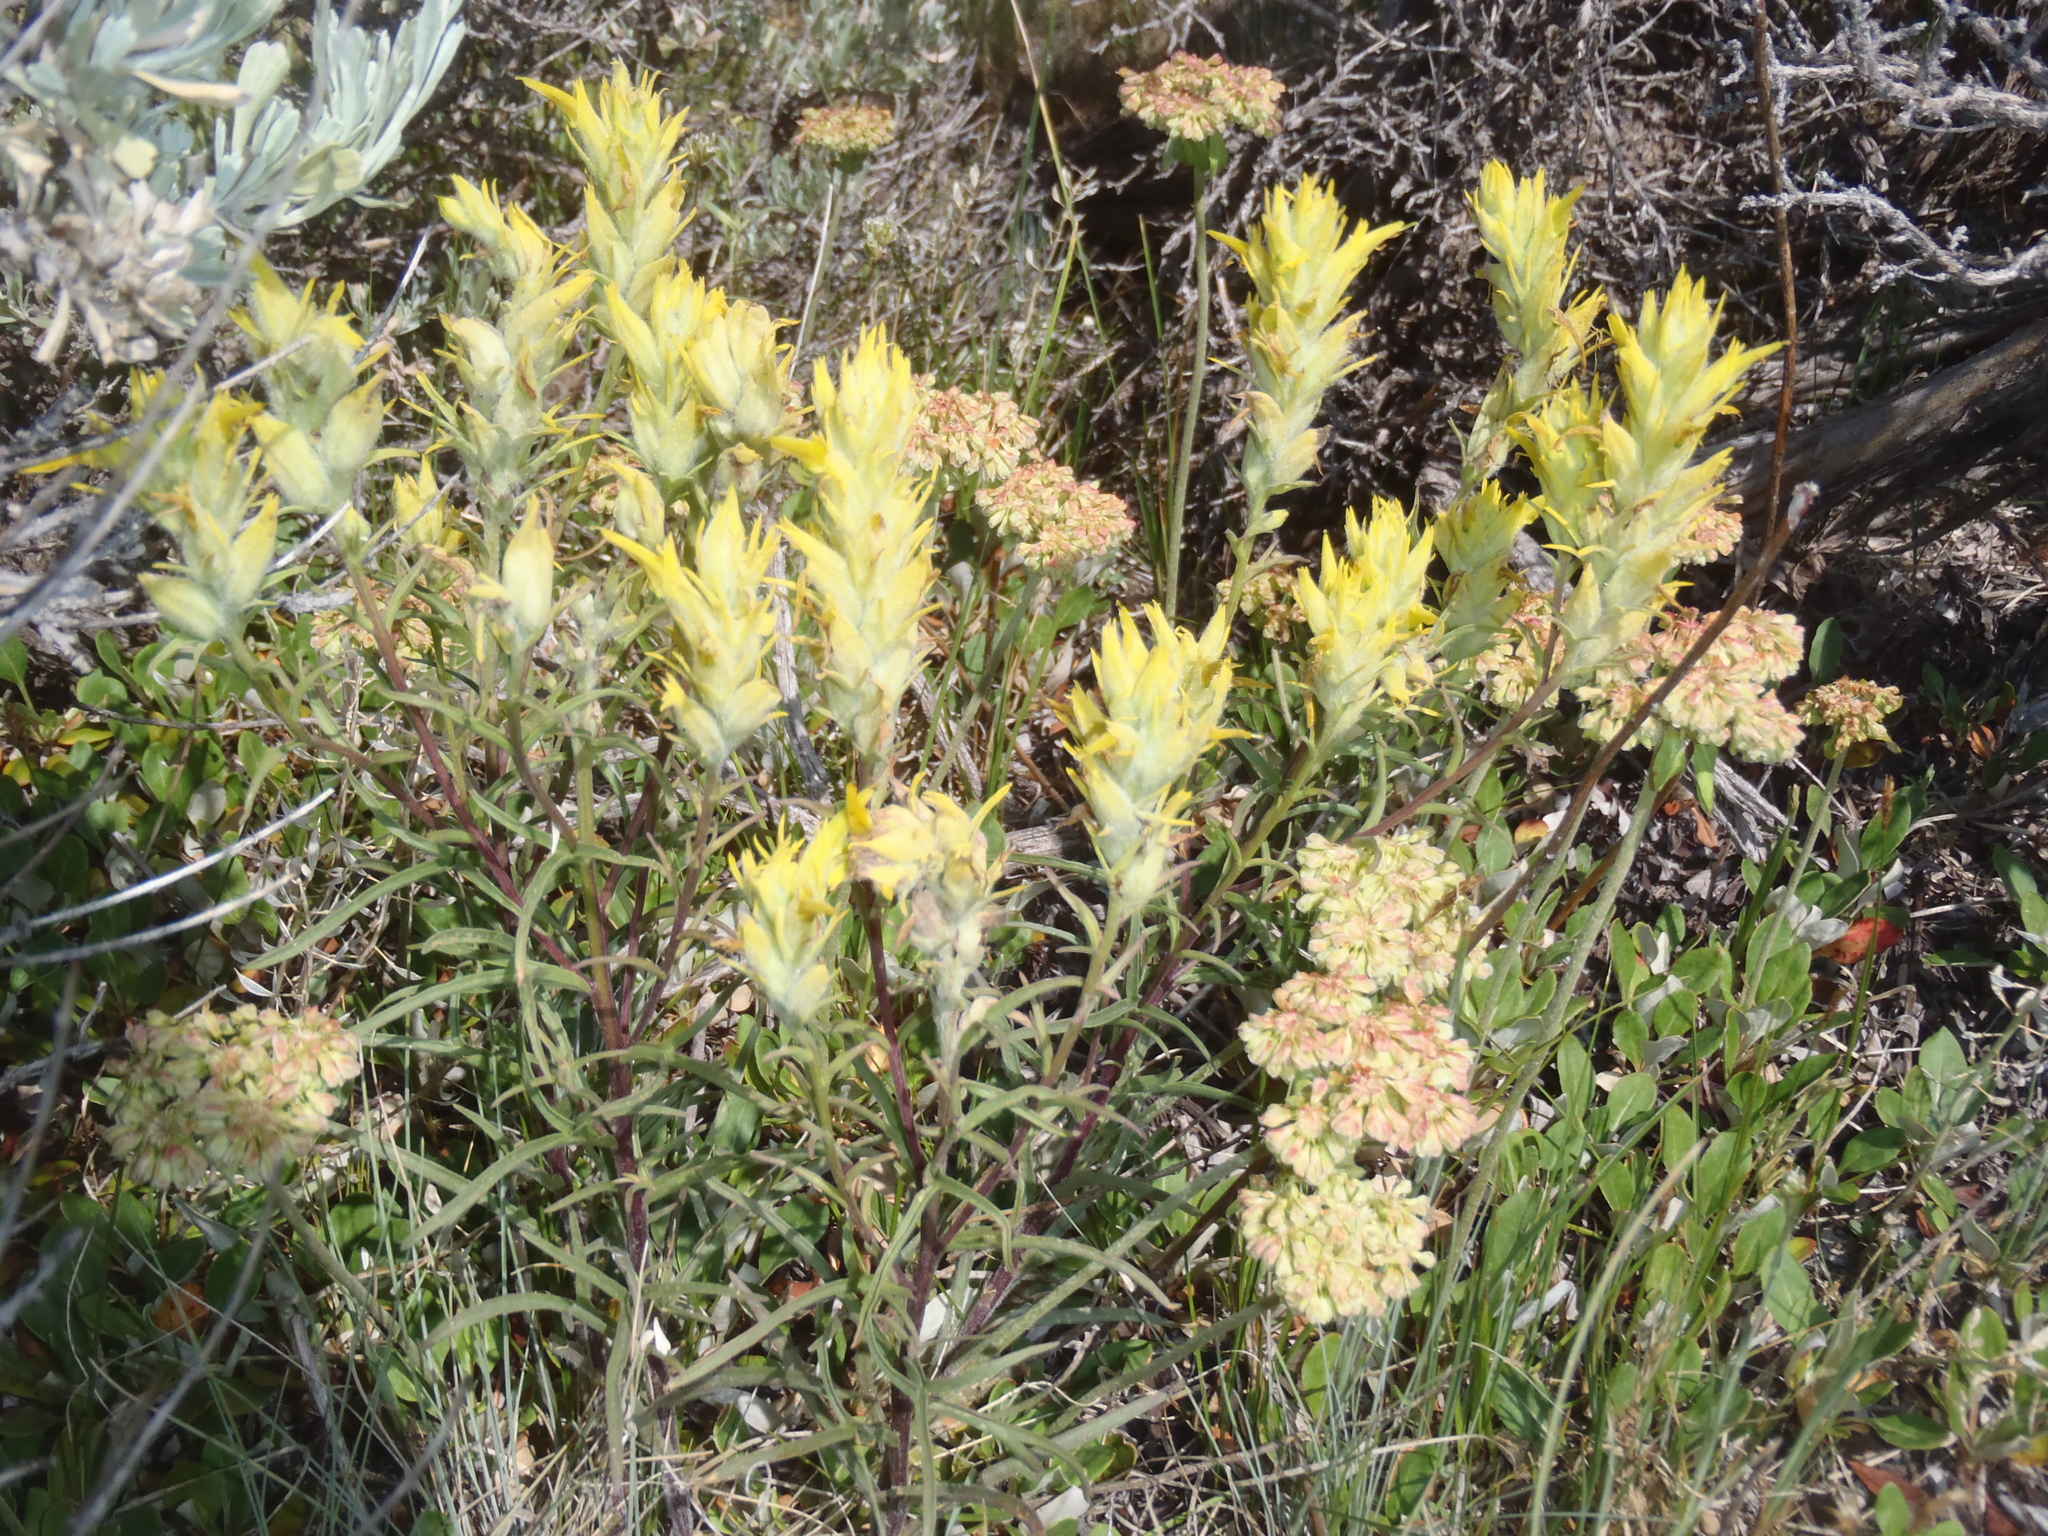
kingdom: Plantae
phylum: Tracheophyta
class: Magnoliopsida
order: Lamiales
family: Orobanchaceae
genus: Castilleja
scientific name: Castilleja flava
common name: Yellow paintbrush
